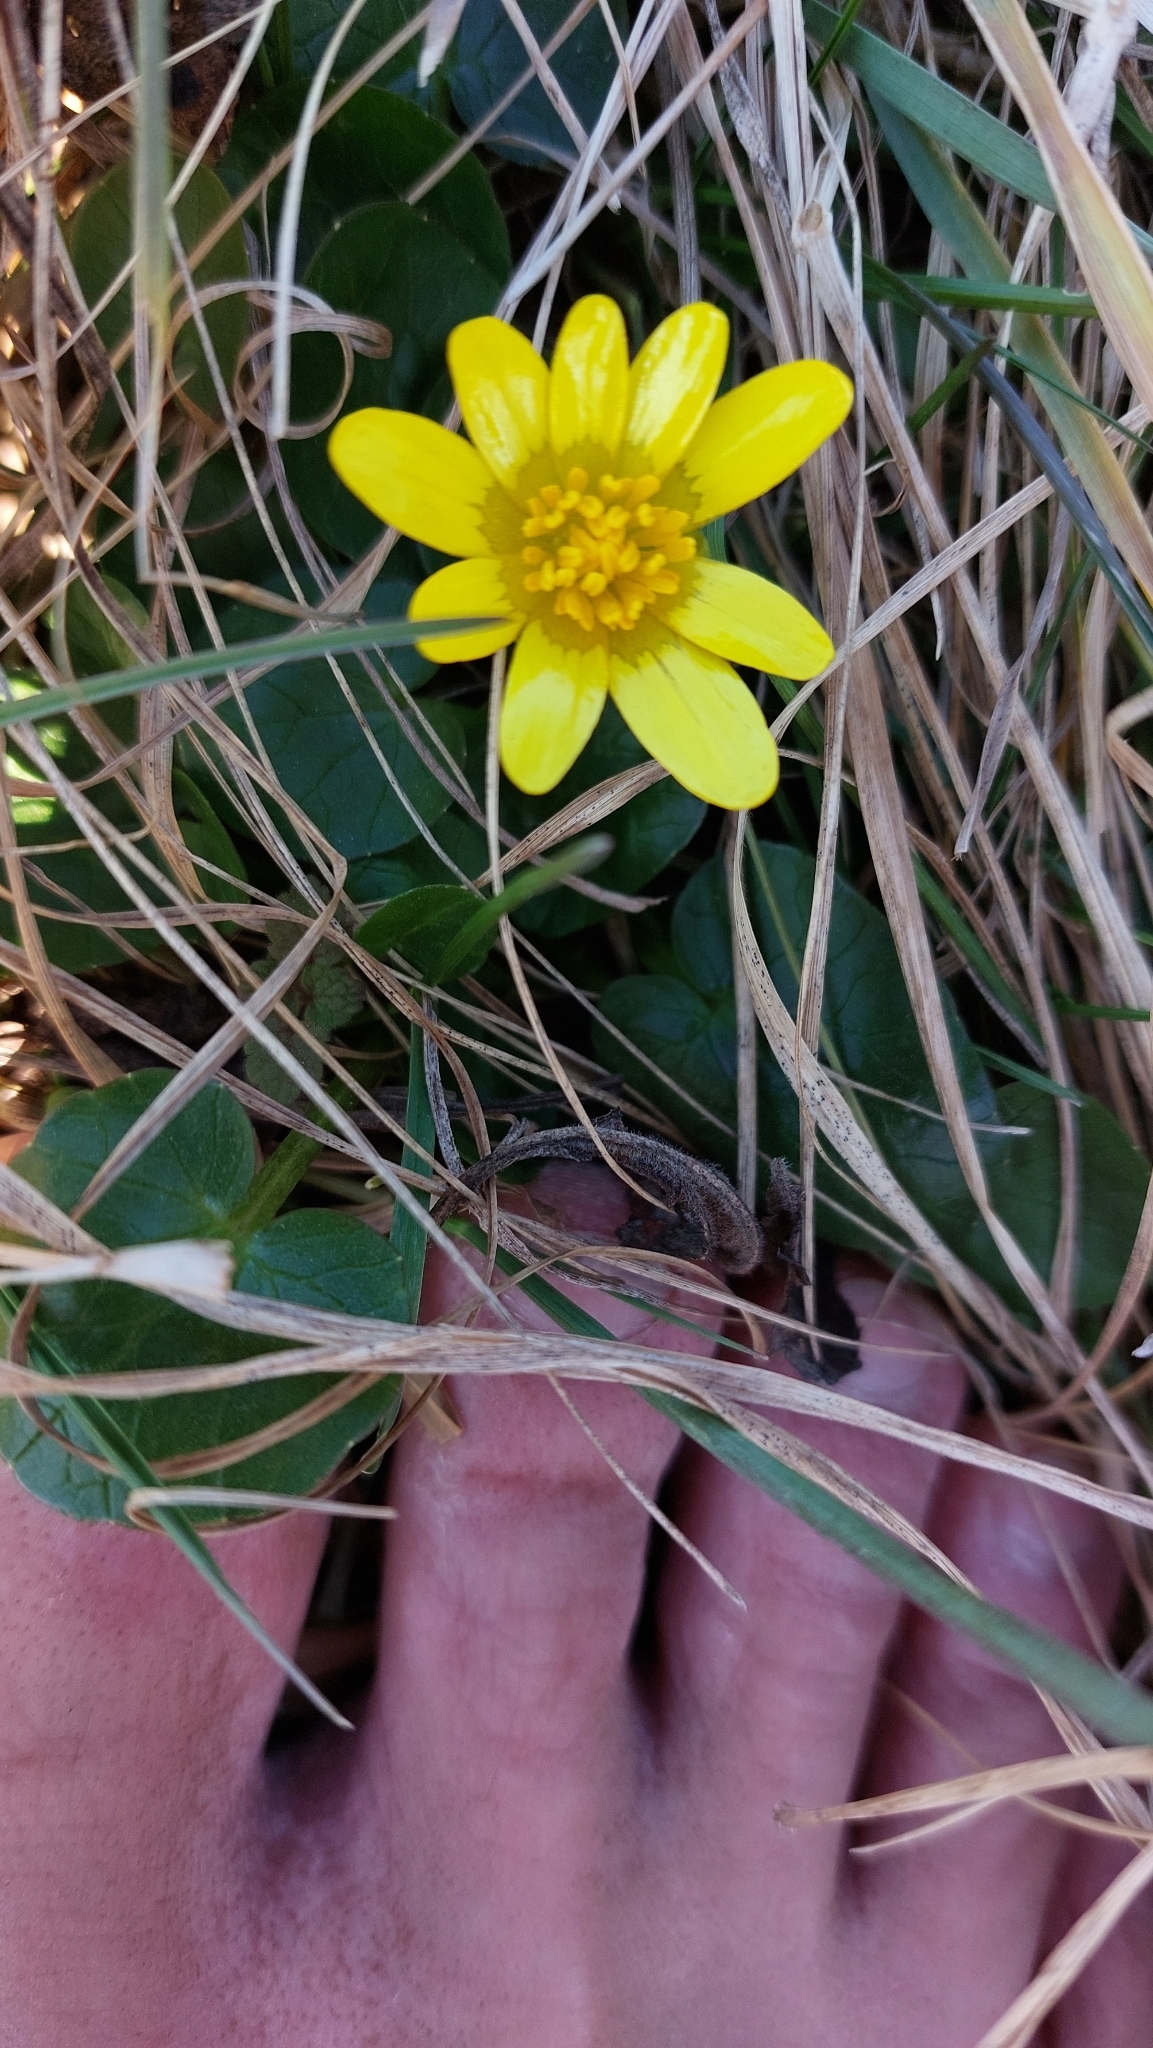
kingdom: Plantae
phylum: Tracheophyta
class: Magnoliopsida
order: Ranunculales
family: Ranunculaceae
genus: Ficaria
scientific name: Ficaria verna
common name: Lesser celandine
